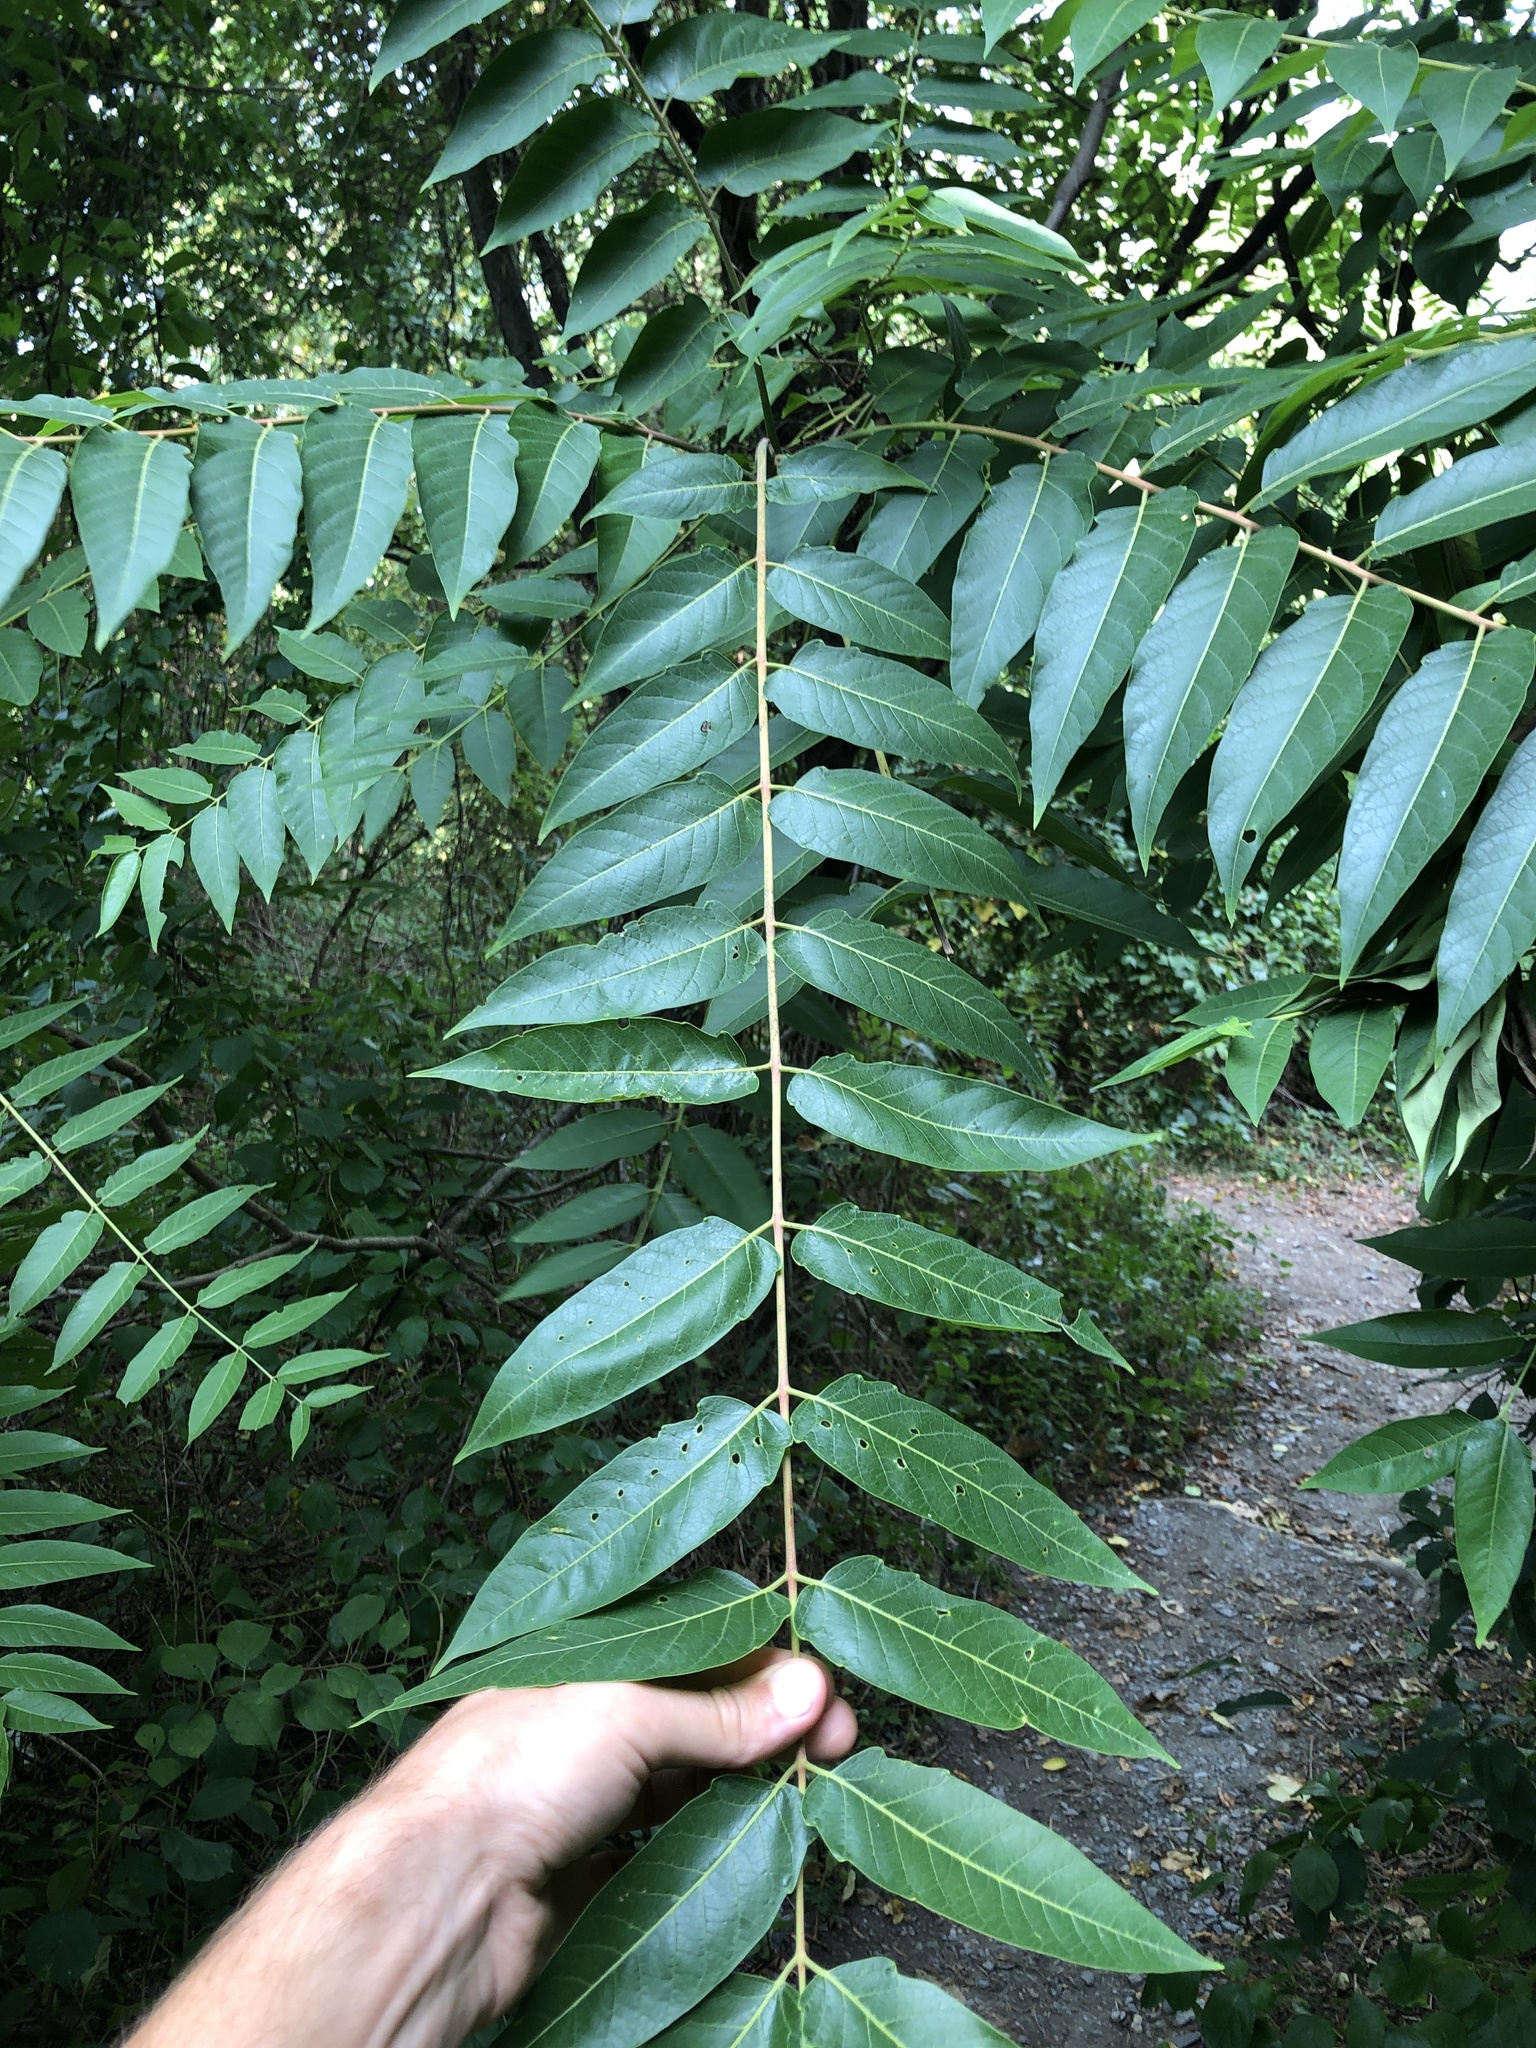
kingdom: Plantae
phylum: Tracheophyta
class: Magnoliopsida
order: Sapindales
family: Simaroubaceae
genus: Ailanthus
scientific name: Ailanthus altissima
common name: Tree-of-heaven
